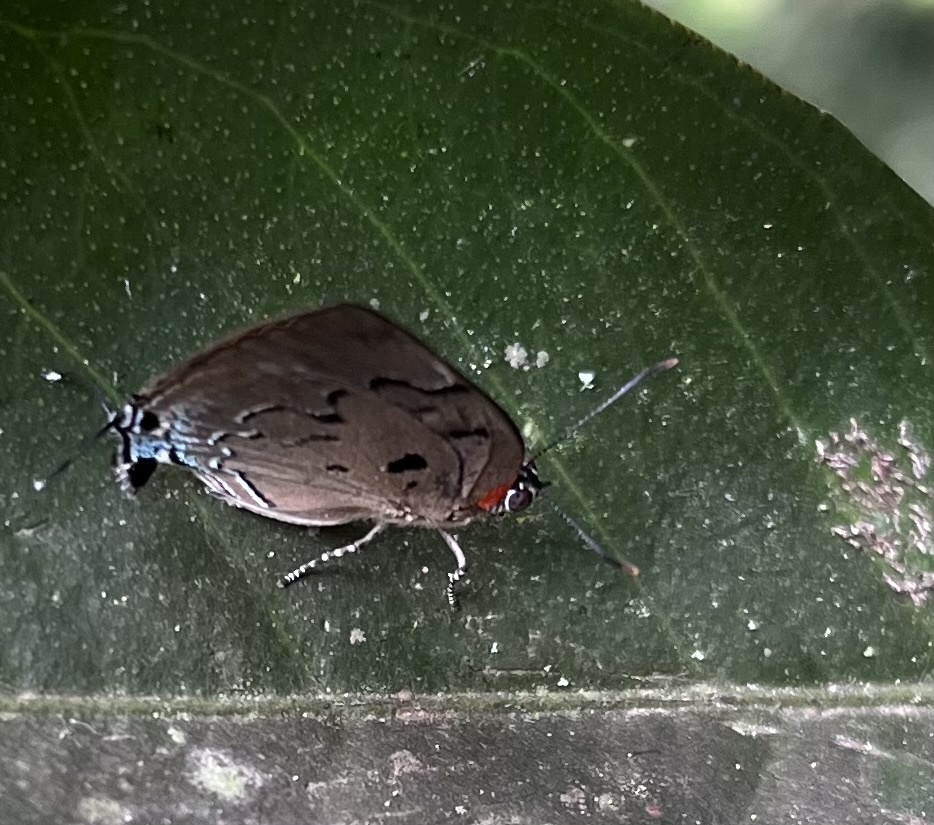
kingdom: Animalia
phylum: Arthropoda
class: Insecta
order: Lepidoptera
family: Lycaenidae
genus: Panthiades
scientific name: Panthiades hebraeus
